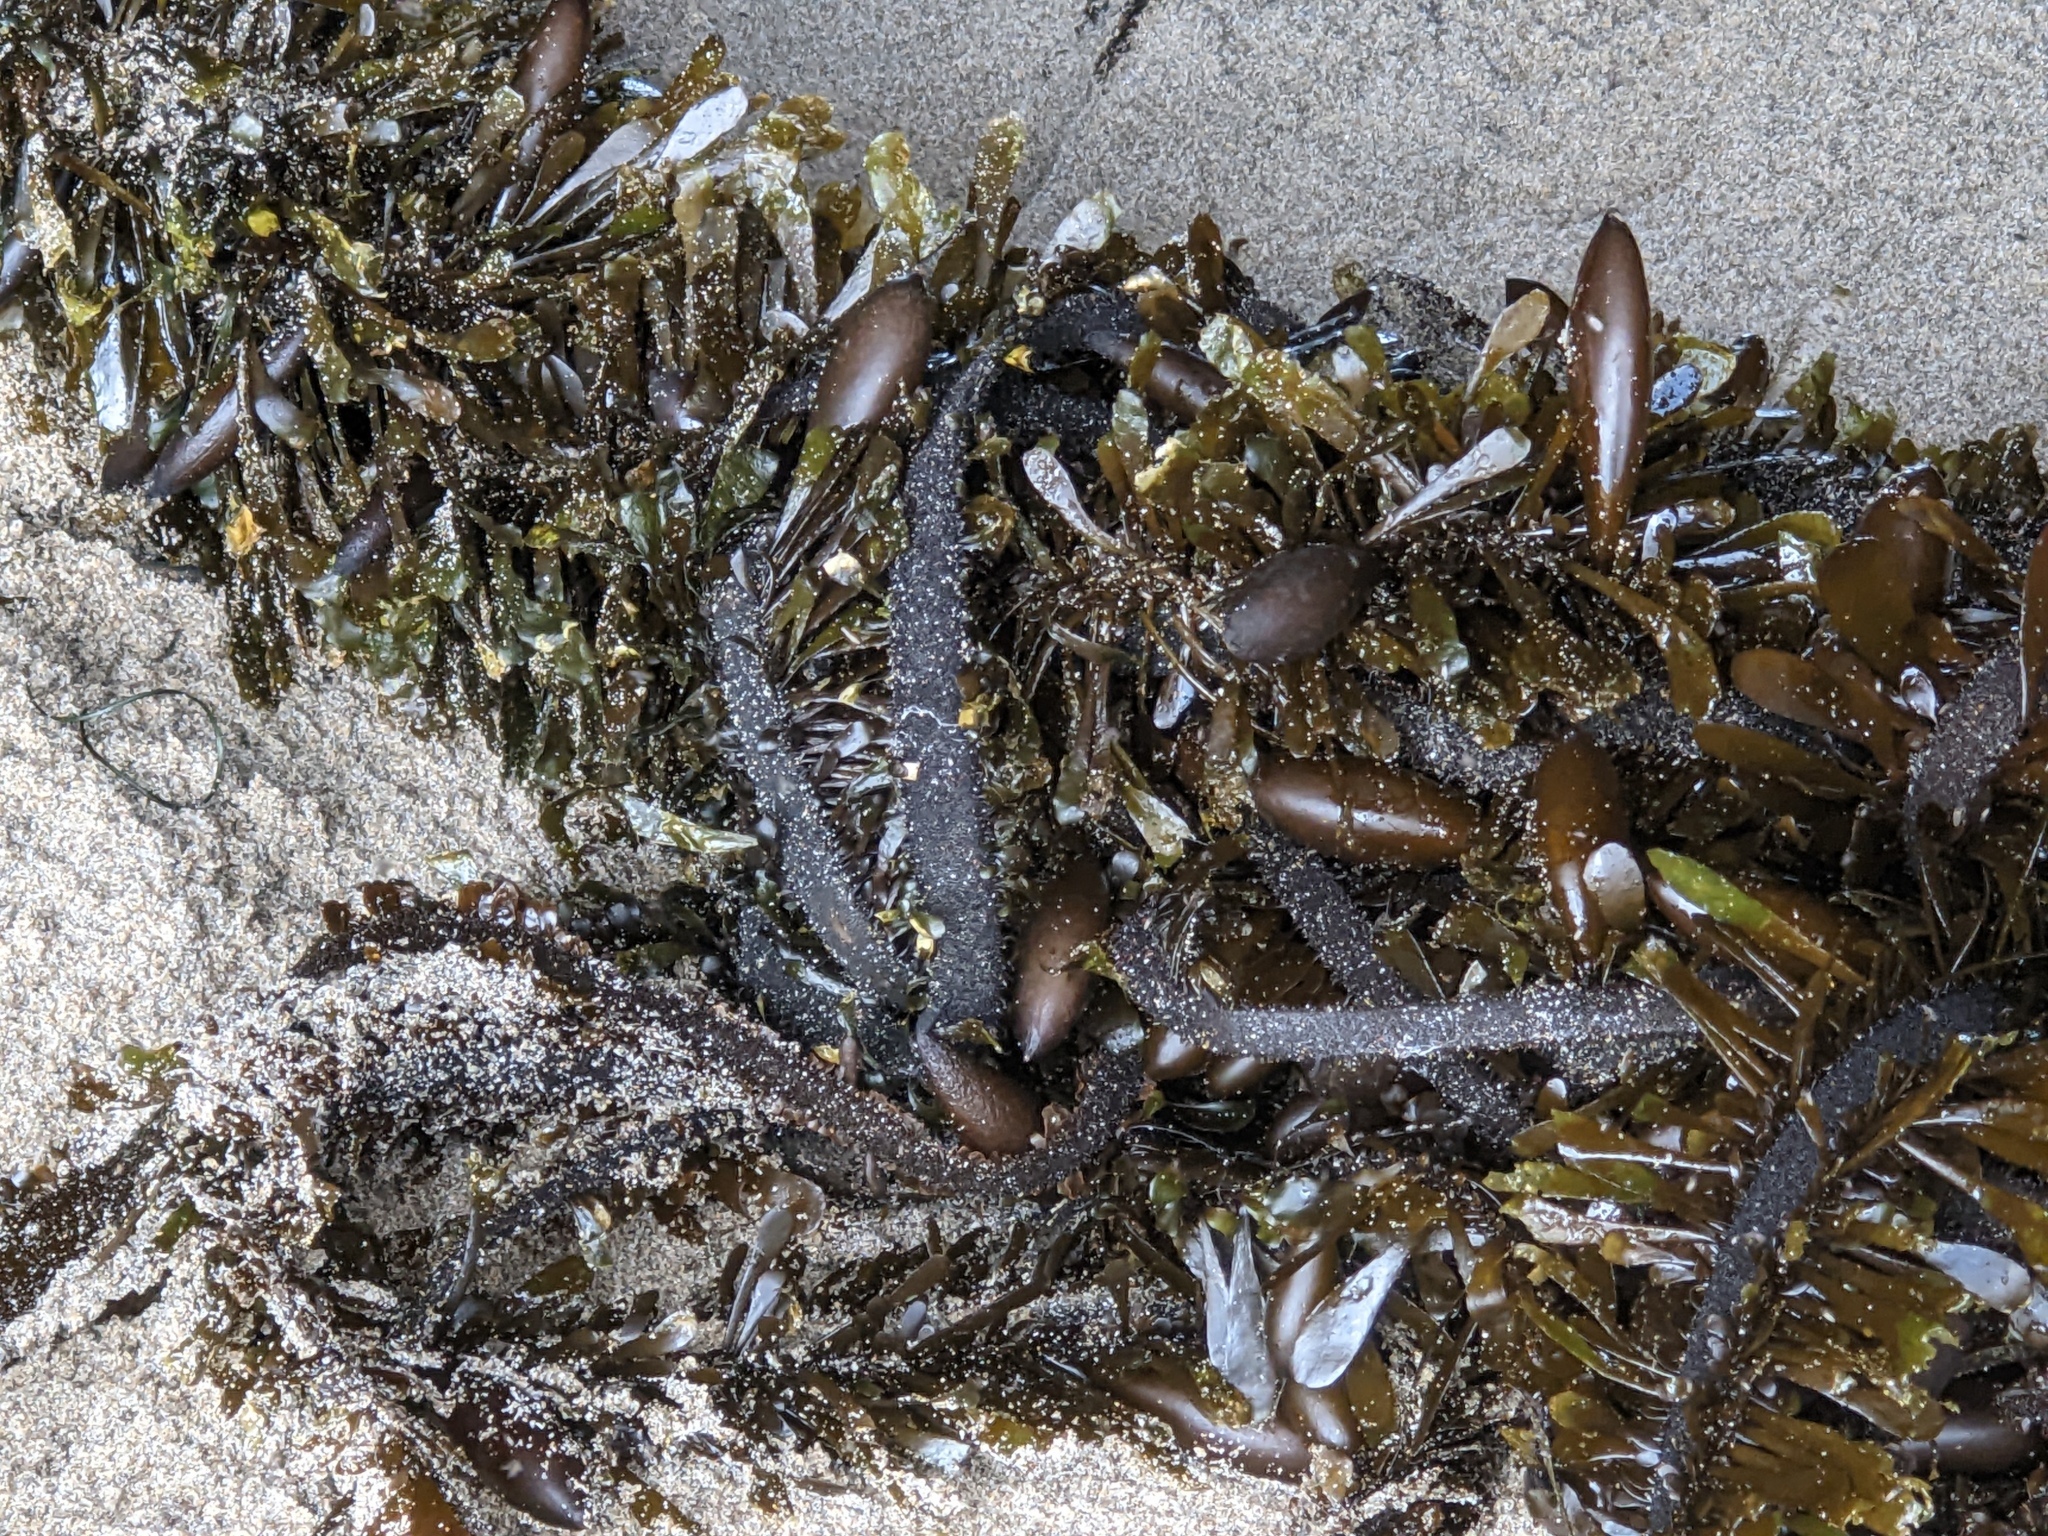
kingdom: Chromista
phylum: Ochrophyta
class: Phaeophyceae
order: Laminariales
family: Lessoniaceae
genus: Egregia
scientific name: Egregia menziesii
